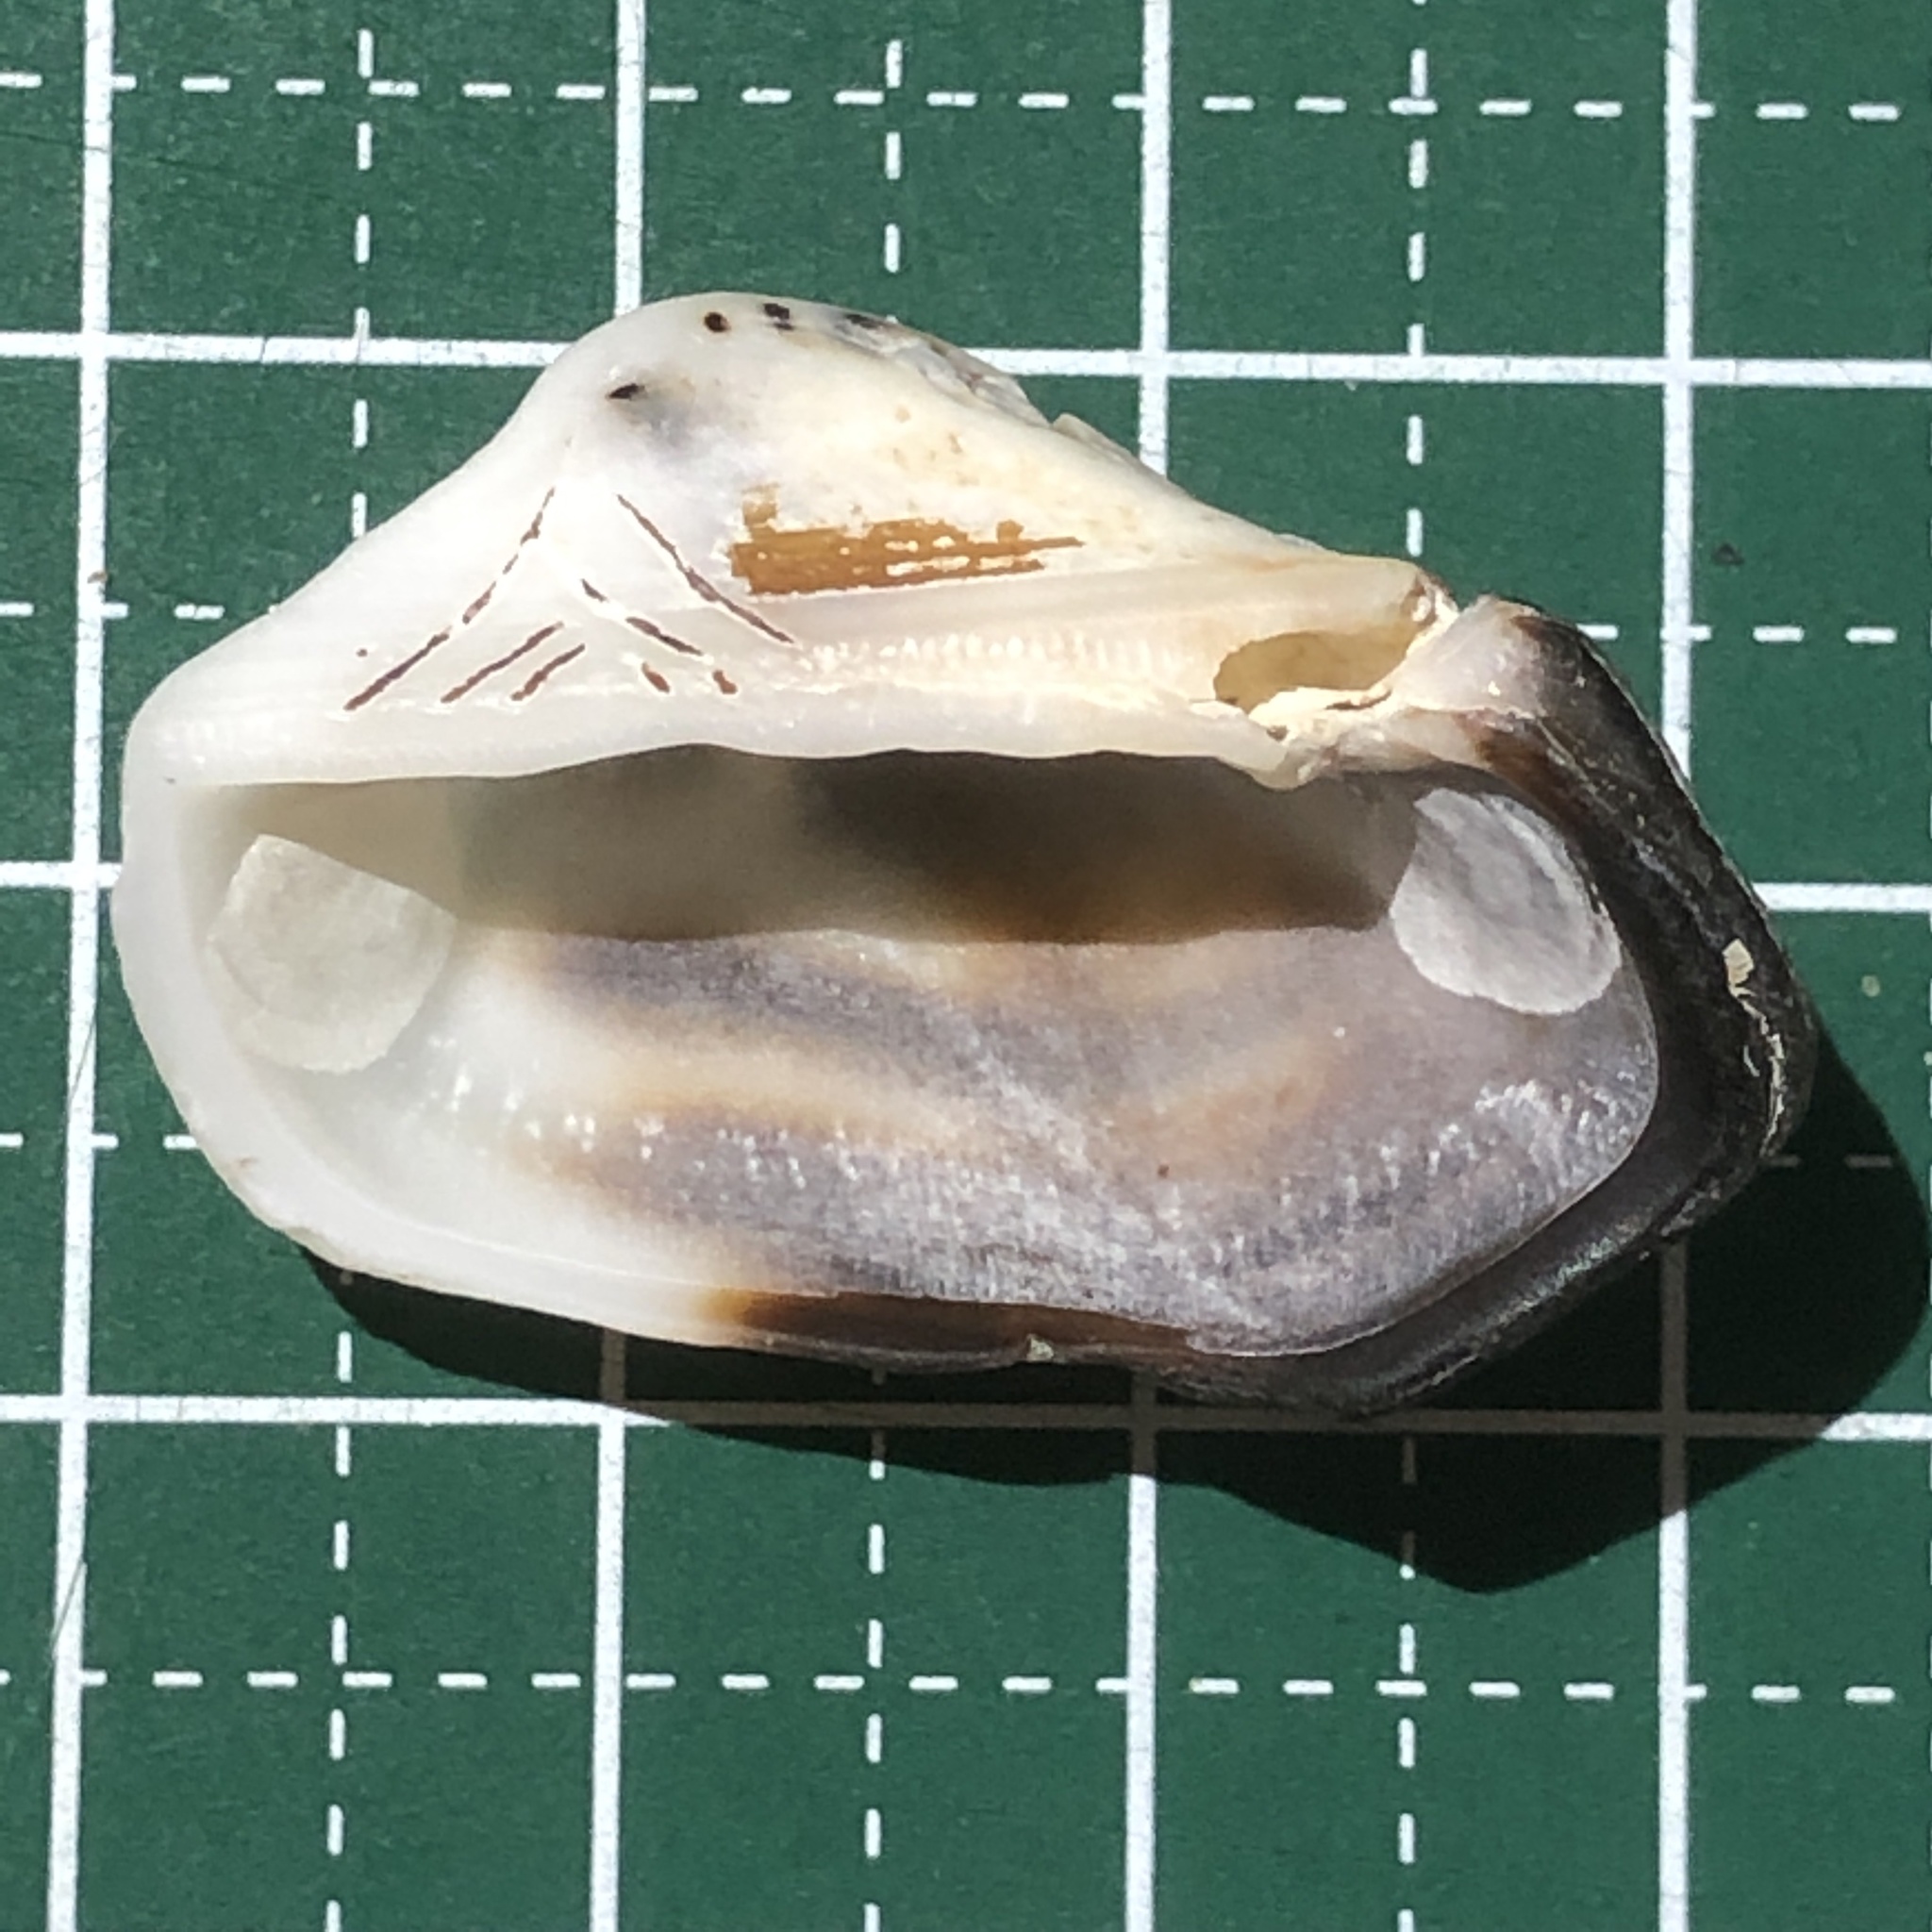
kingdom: Animalia
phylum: Mollusca
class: Bivalvia
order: Arcida
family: Arcidae
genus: Lamarcka
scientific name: Lamarcka avellana
